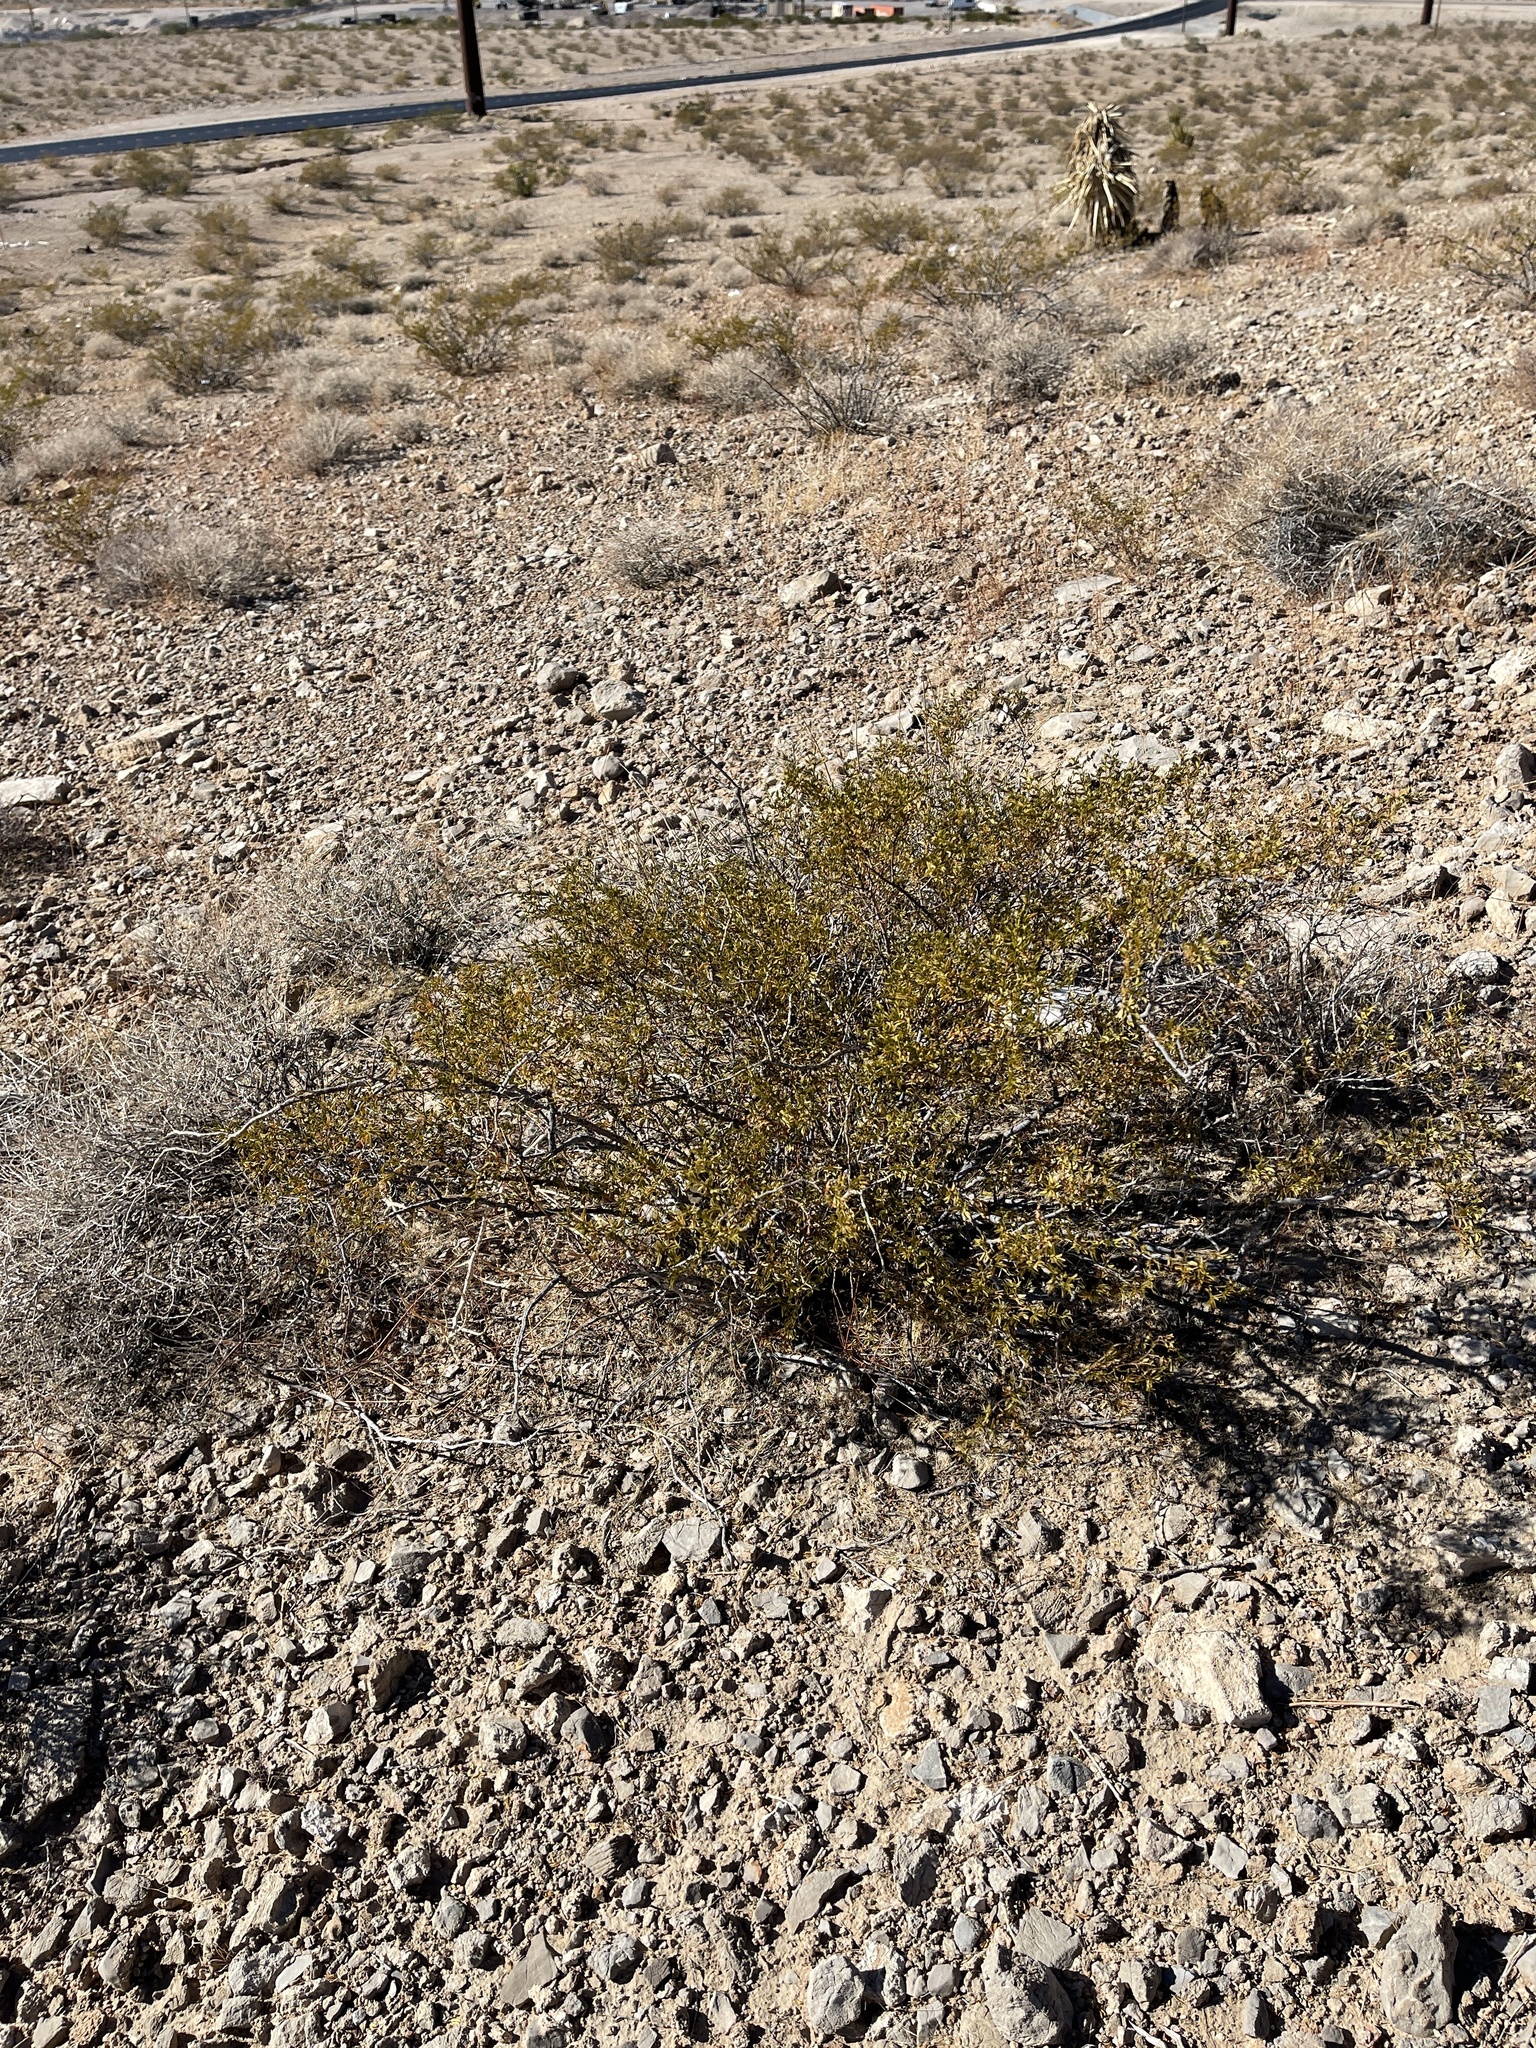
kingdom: Plantae
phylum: Tracheophyta
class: Magnoliopsida
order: Zygophyllales
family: Zygophyllaceae
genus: Larrea
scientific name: Larrea tridentata
